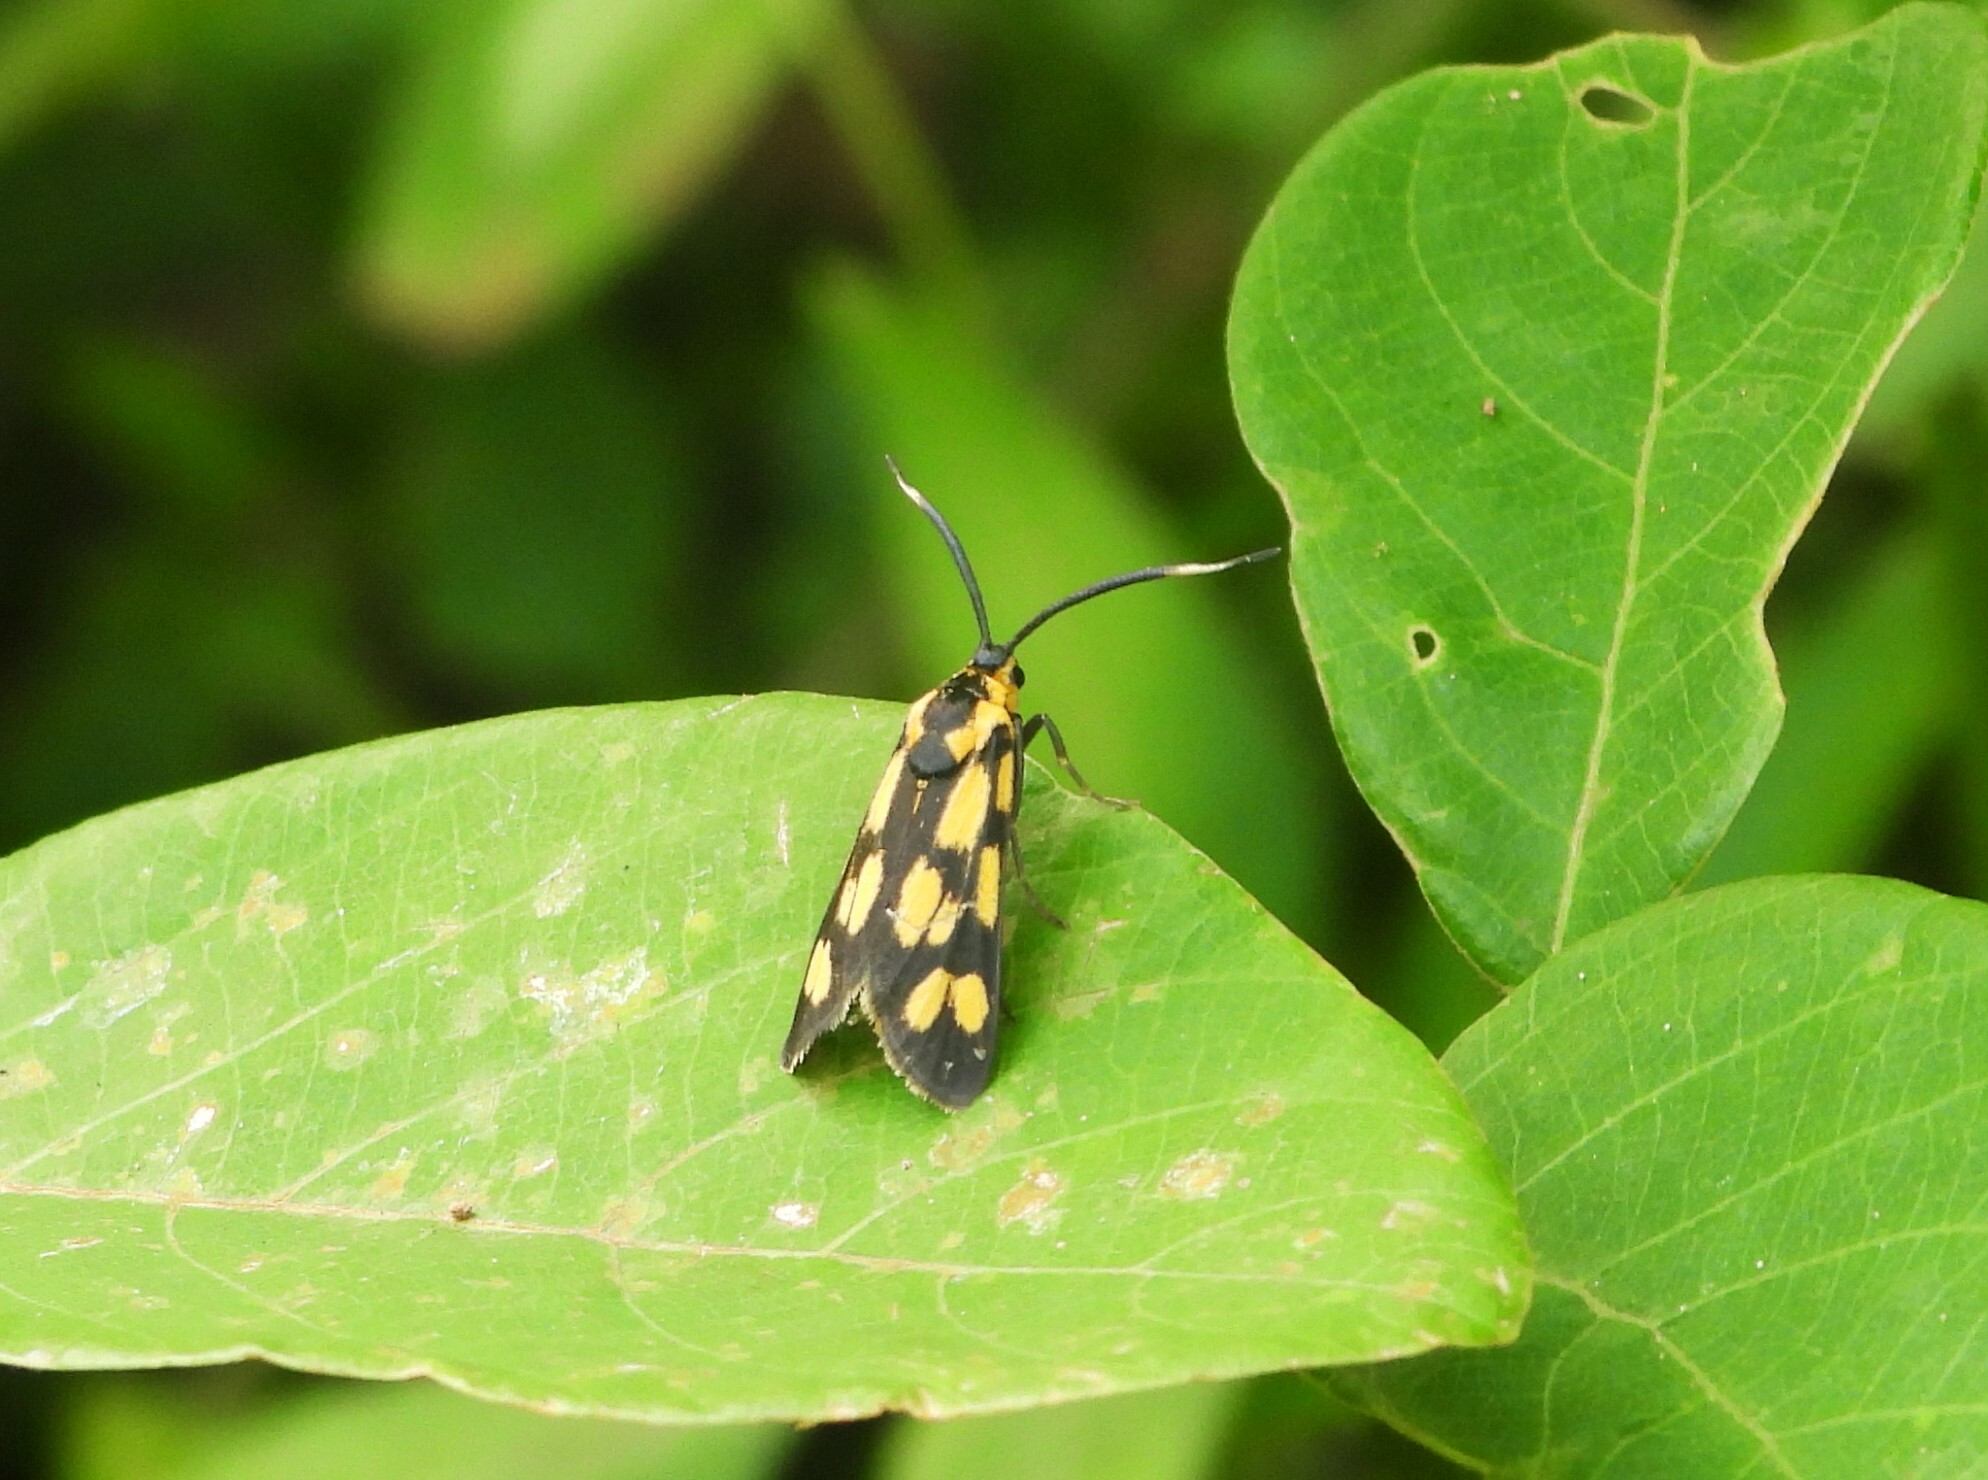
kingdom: Animalia
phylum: Arthropoda
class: Insecta
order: Lepidoptera
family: Zygaenidae
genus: Artona
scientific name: Artona walkeri
